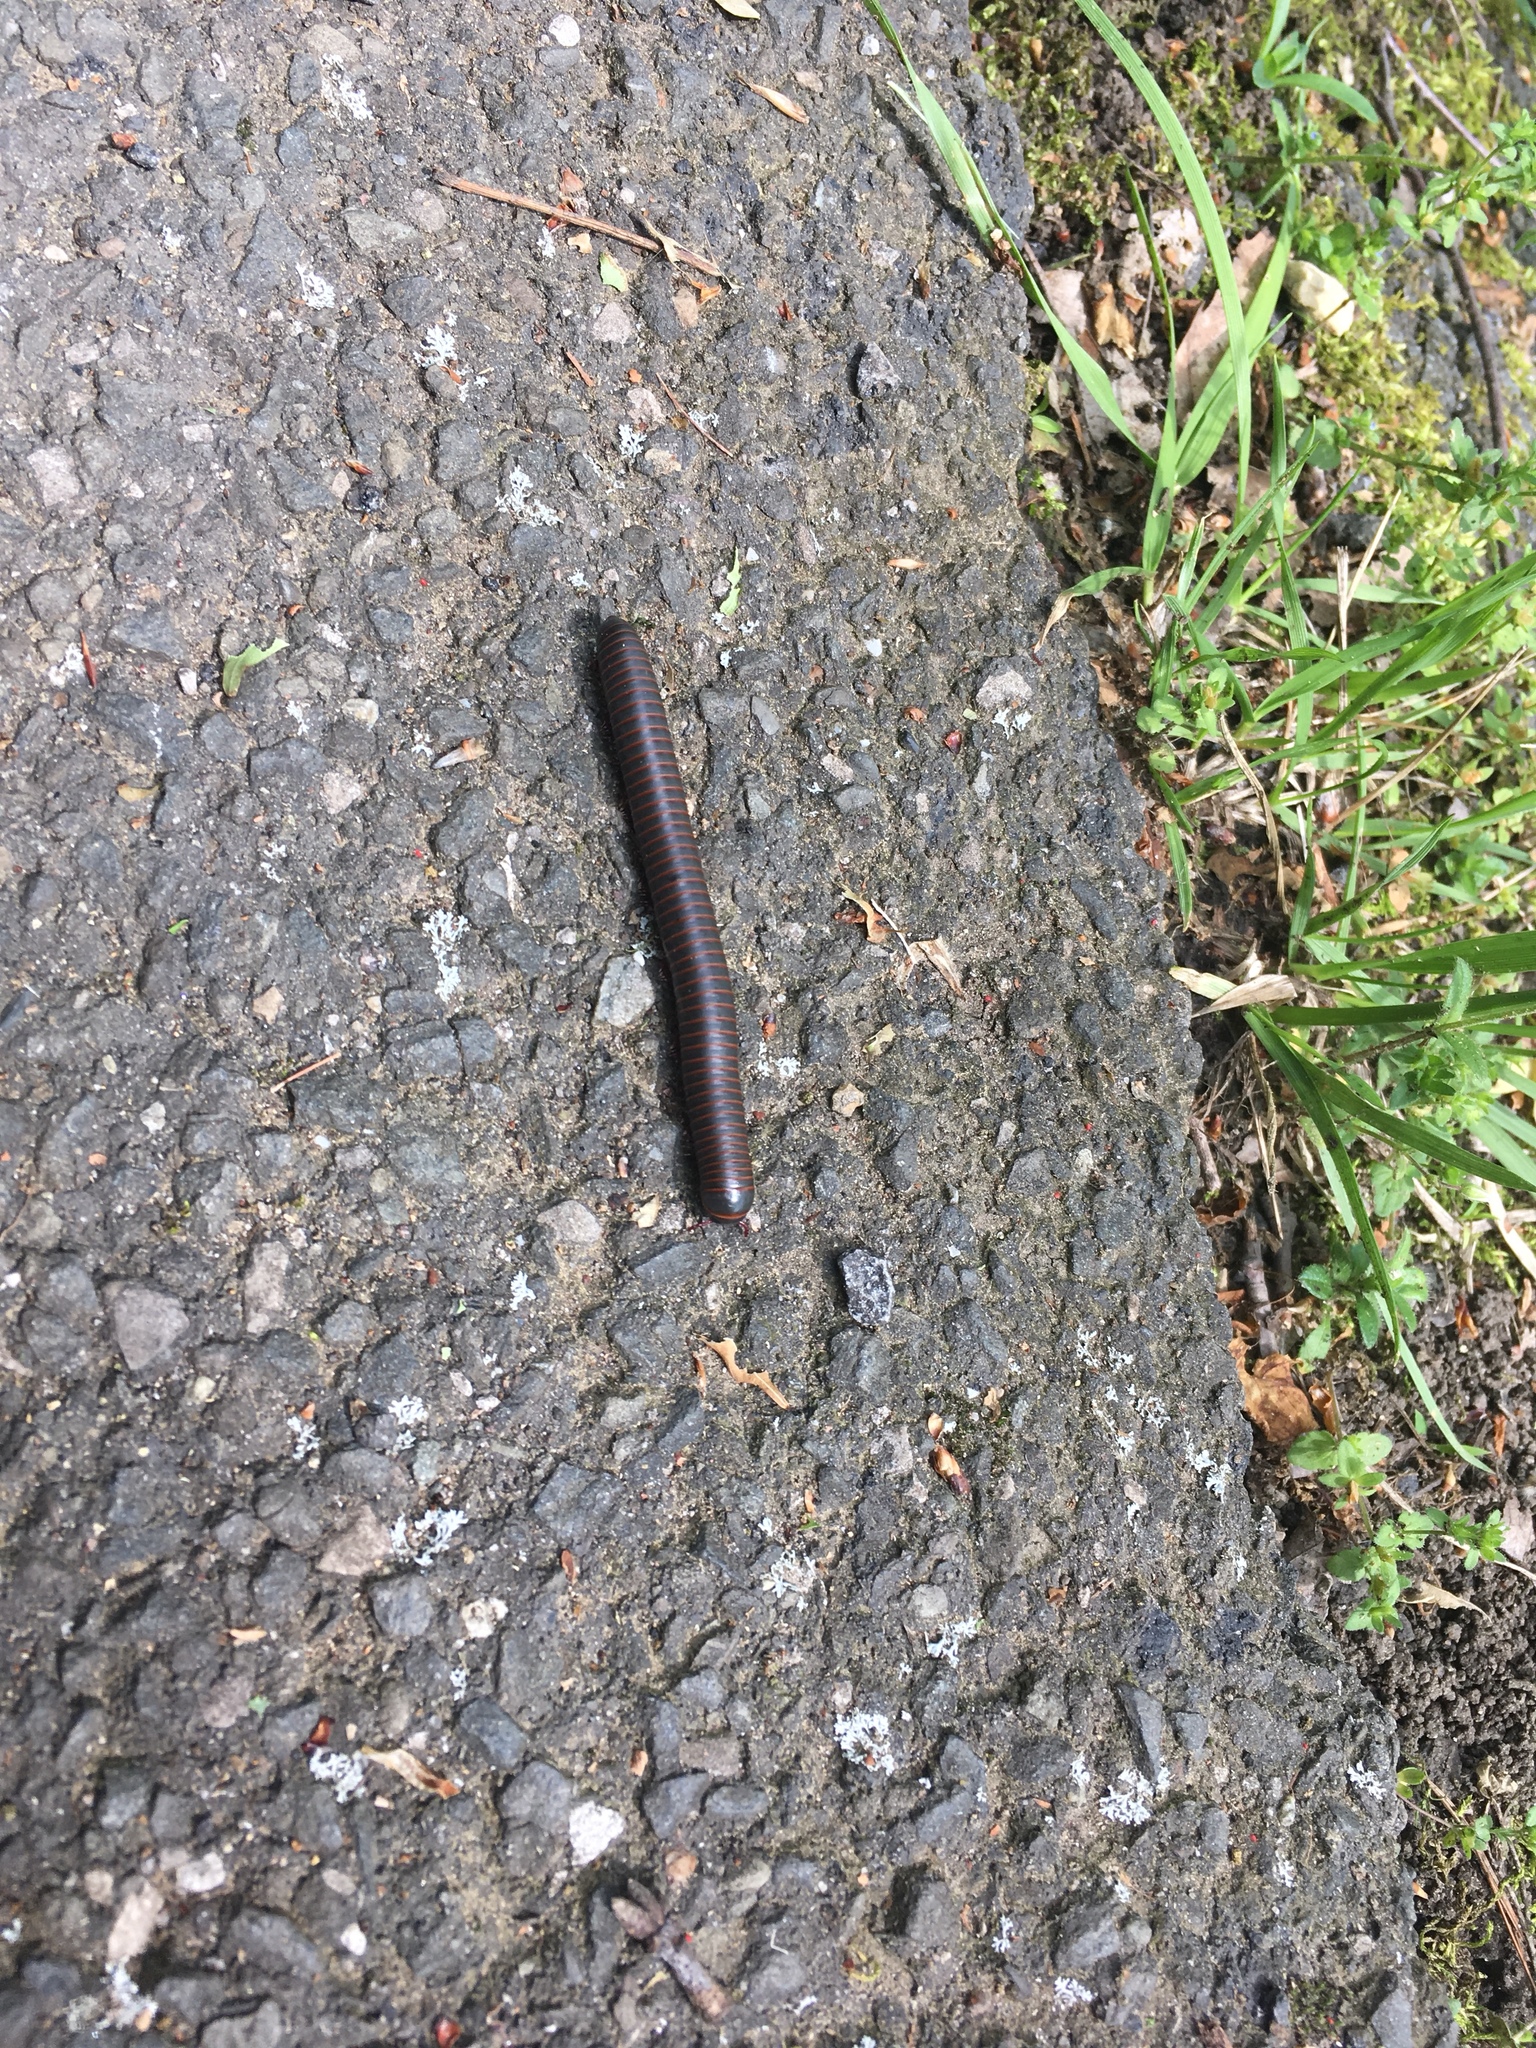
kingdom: Animalia
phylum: Arthropoda
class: Diplopoda
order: Spirobolida
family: Spirobolidae
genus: Narceus
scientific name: Narceus
